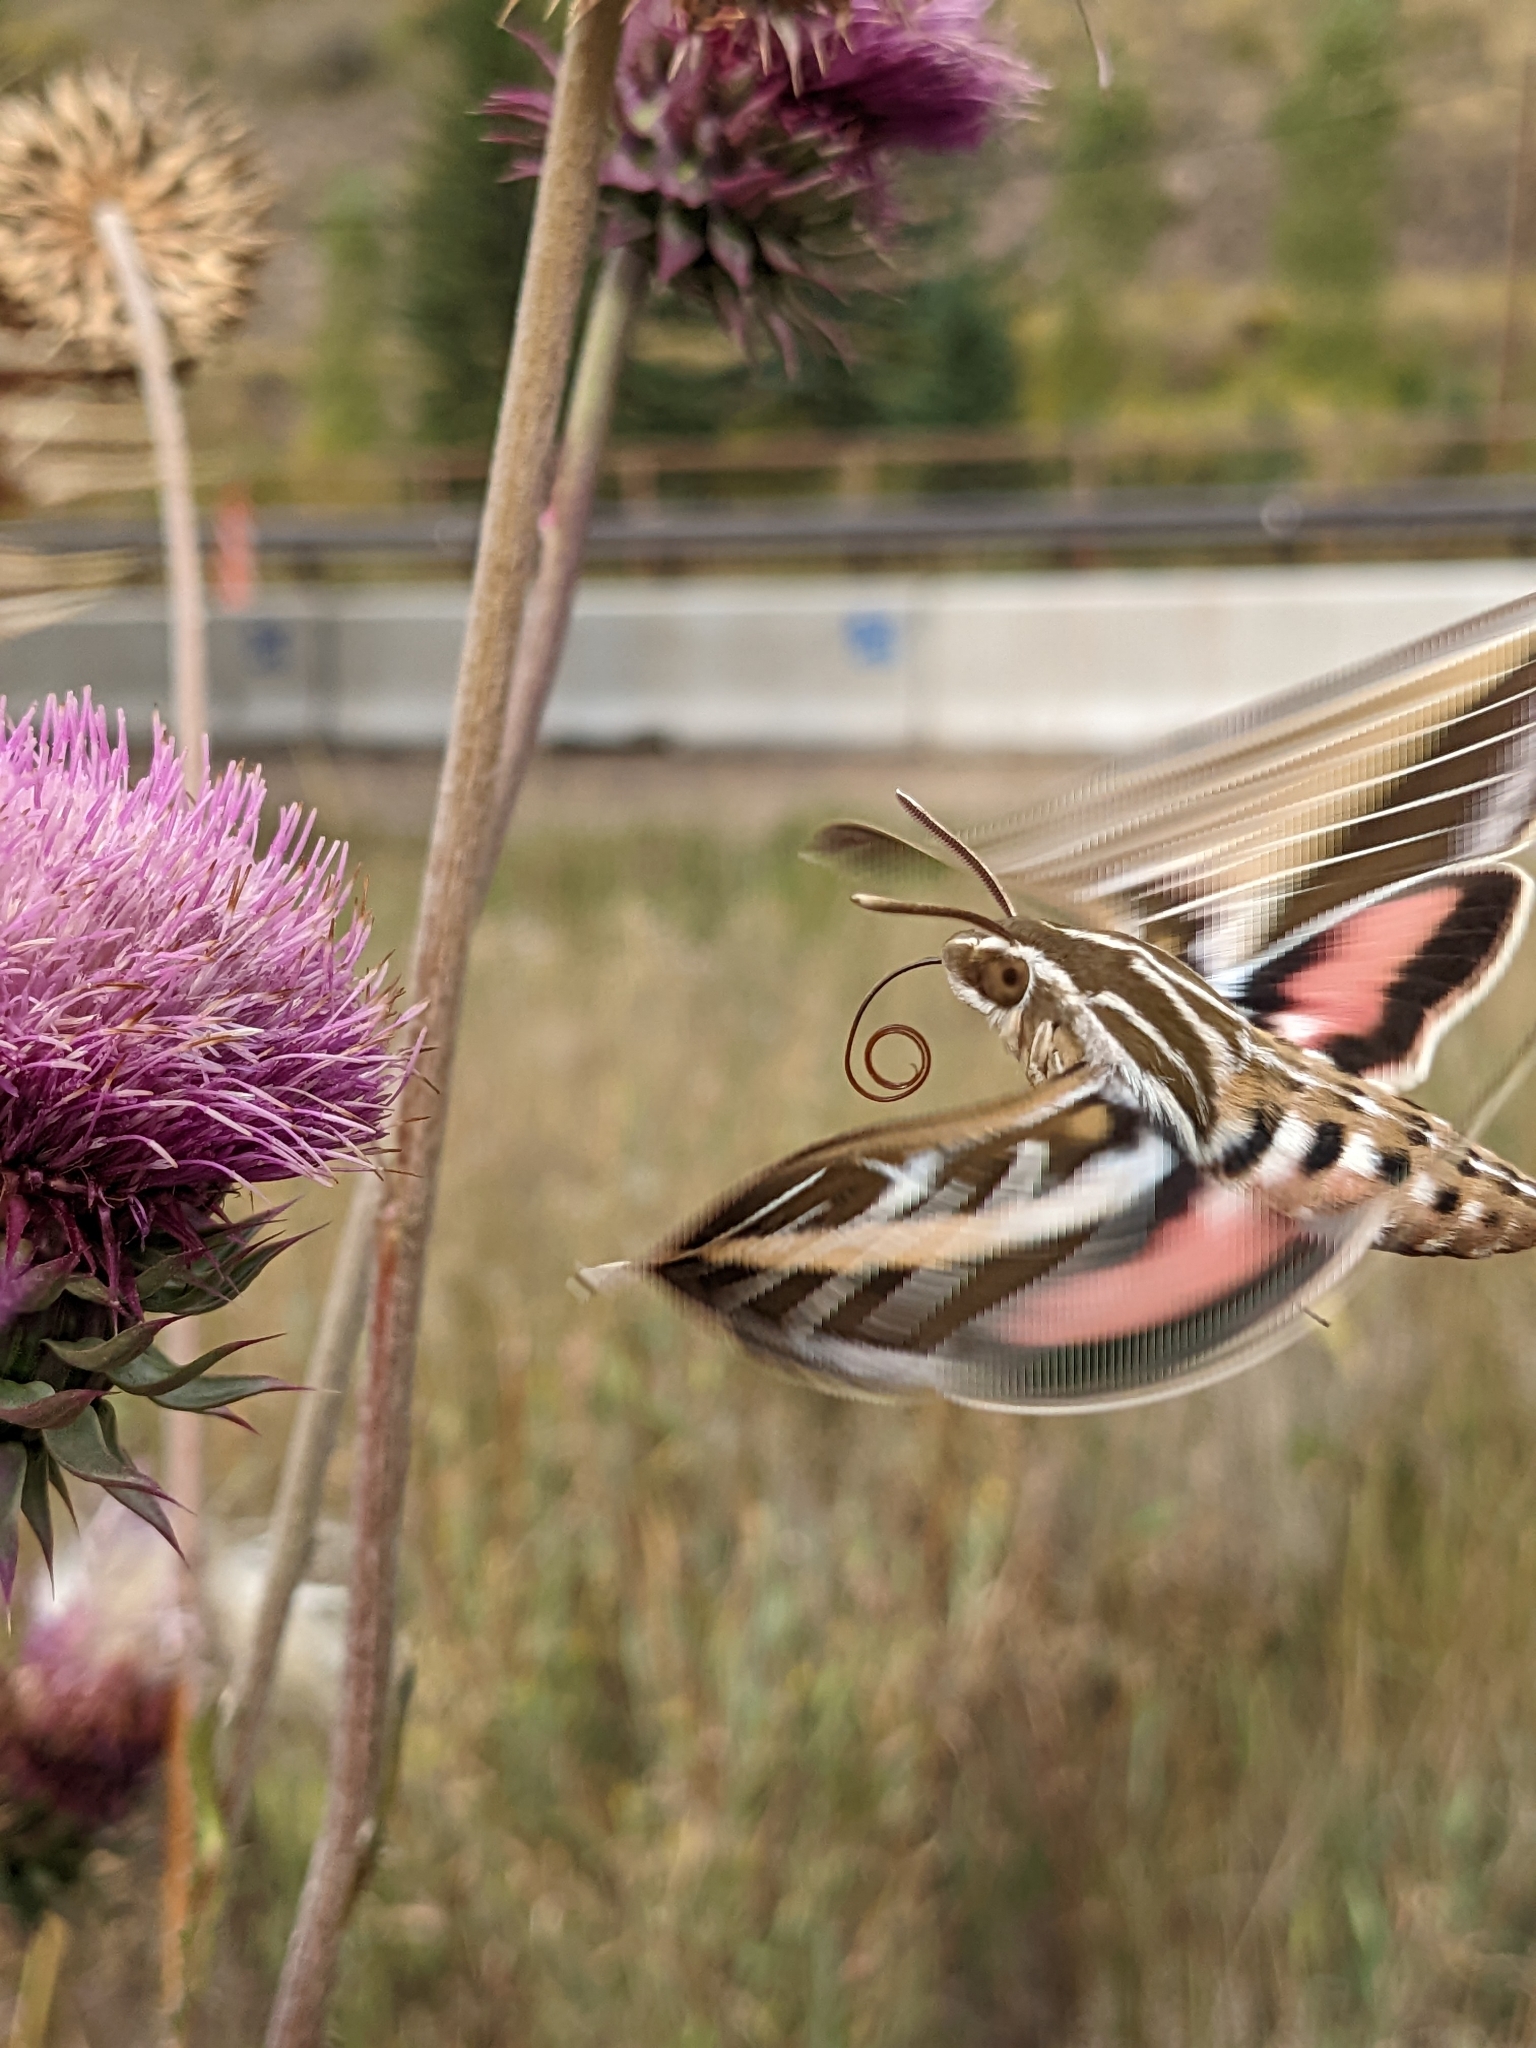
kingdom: Animalia
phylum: Arthropoda
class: Insecta
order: Lepidoptera
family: Sphingidae
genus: Hyles
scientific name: Hyles lineata
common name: White-lined sphinx
